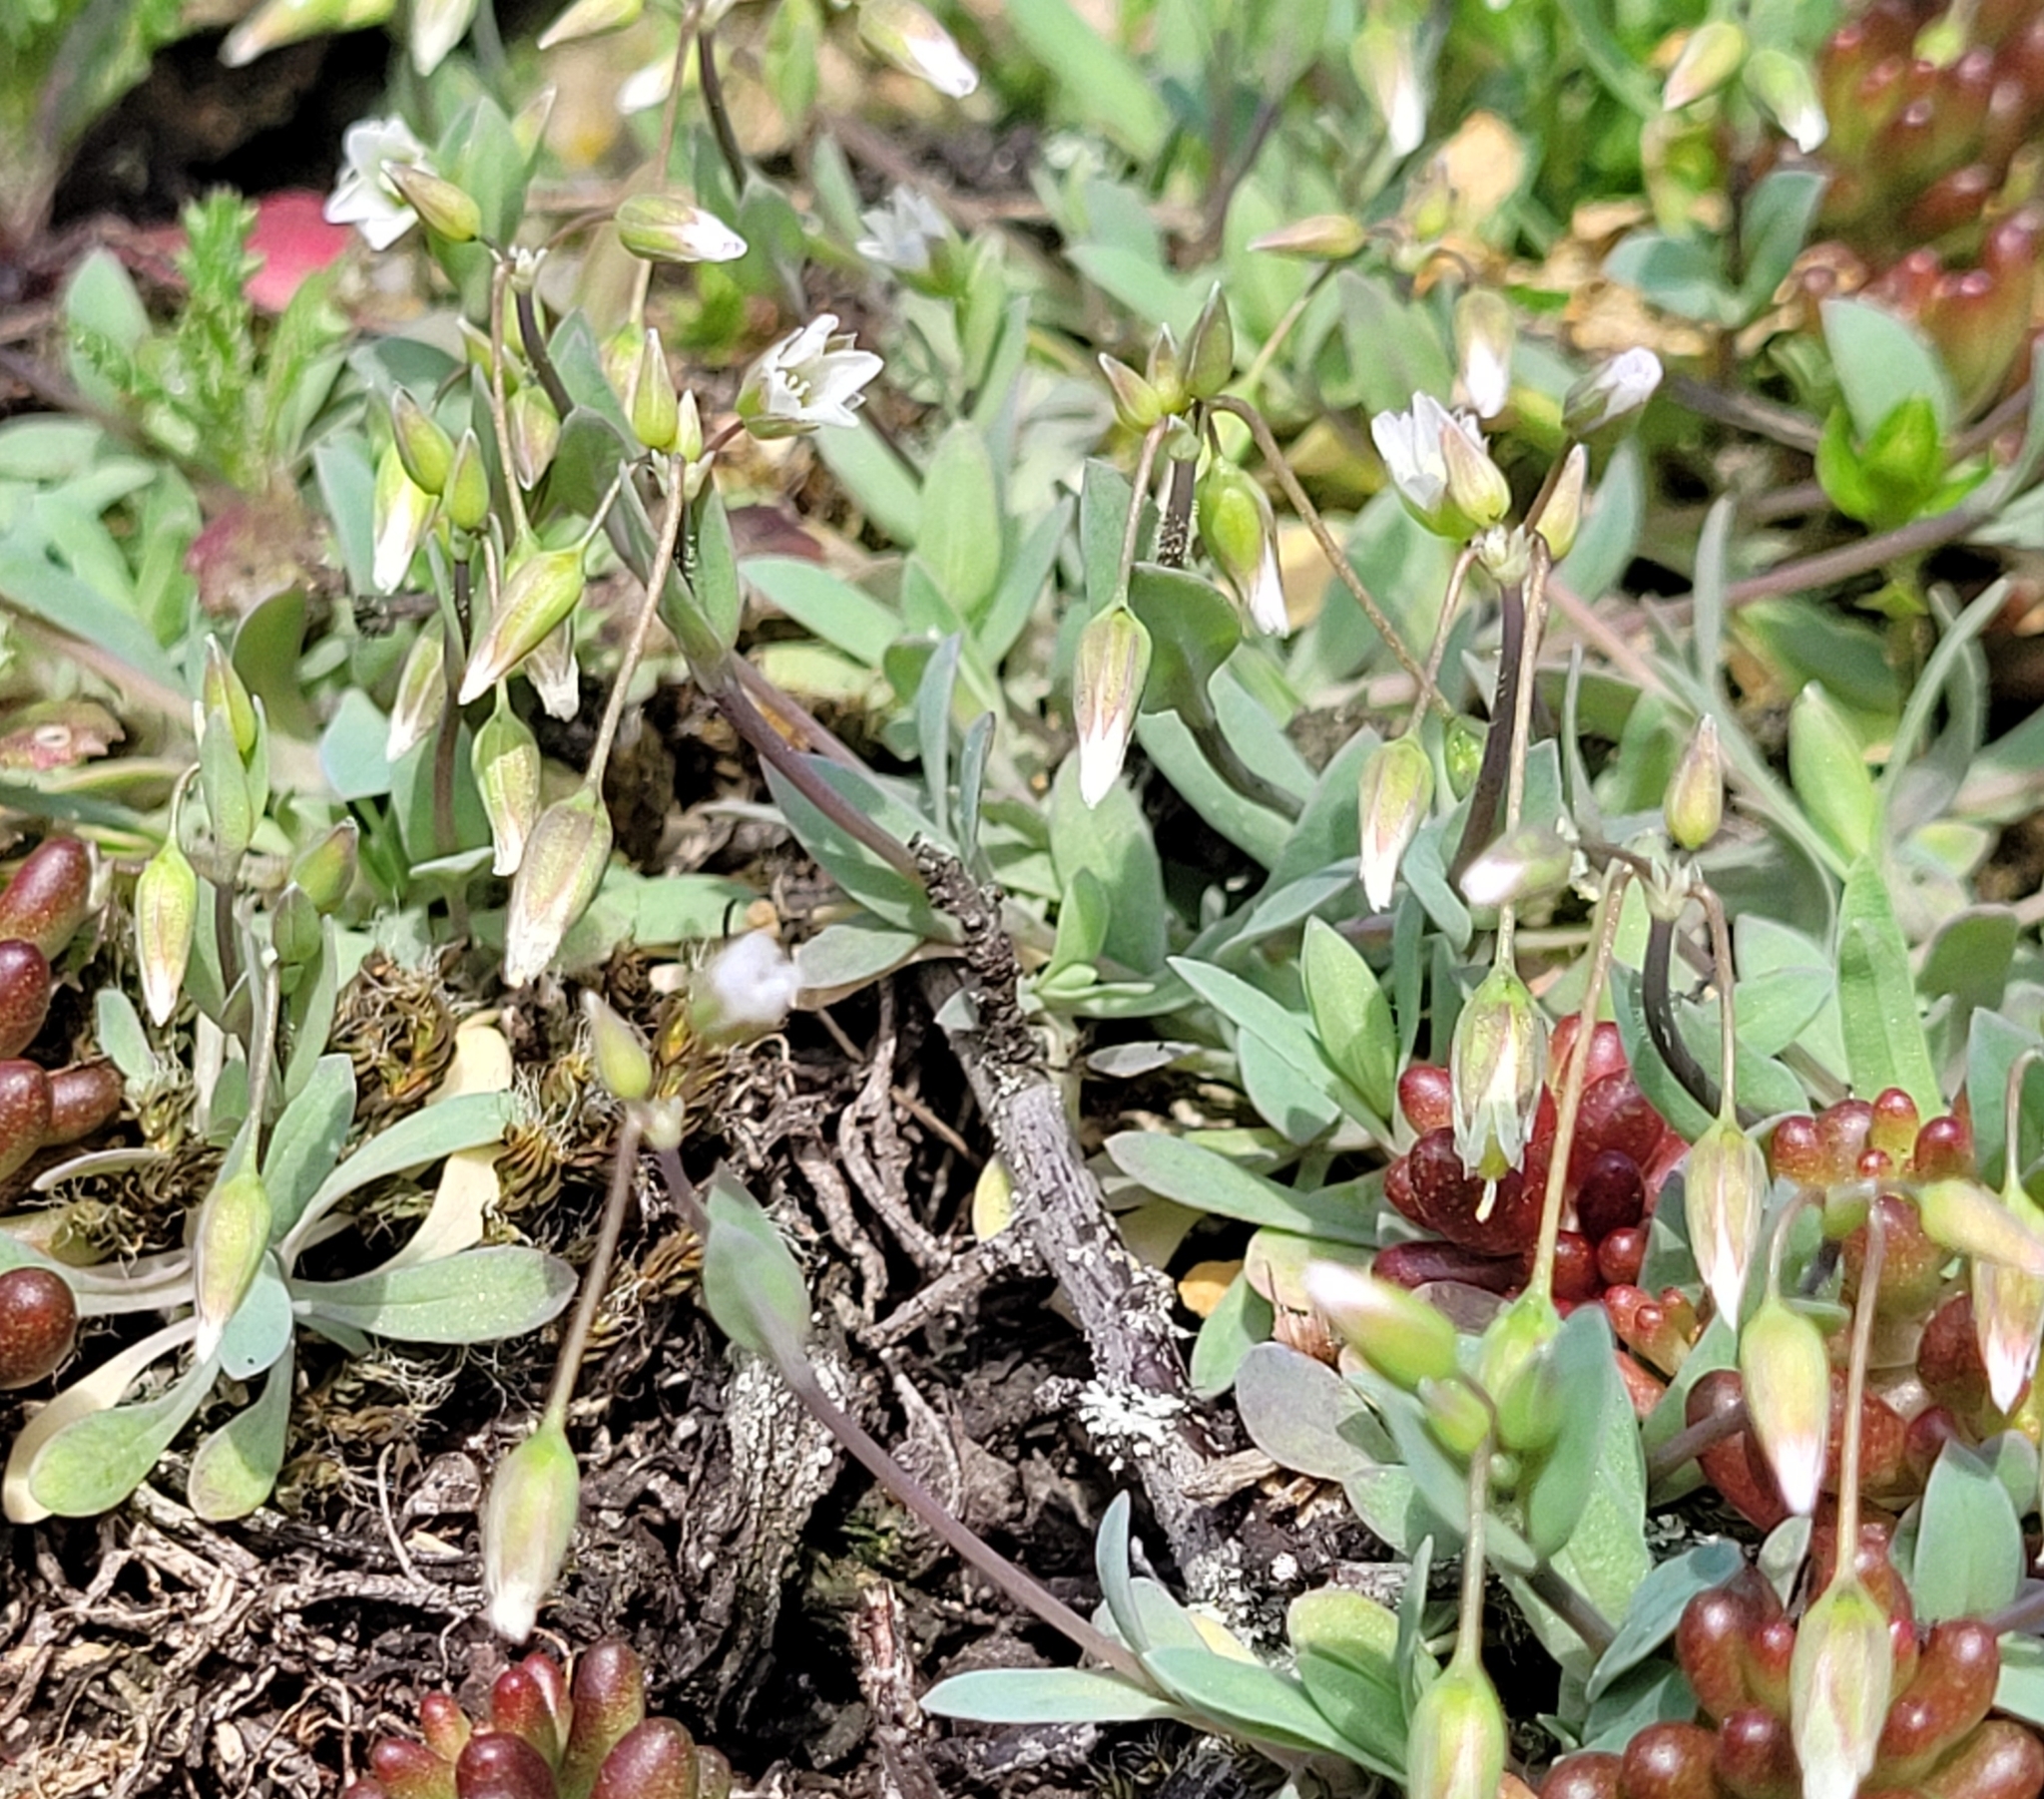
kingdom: Plantae
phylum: Tracheophyta
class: Magnoliopsida
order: Caryophyllales
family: Caryophyllaceae
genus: Holosteum
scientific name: Holosteum umbellatum
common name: Jagged chickweed
